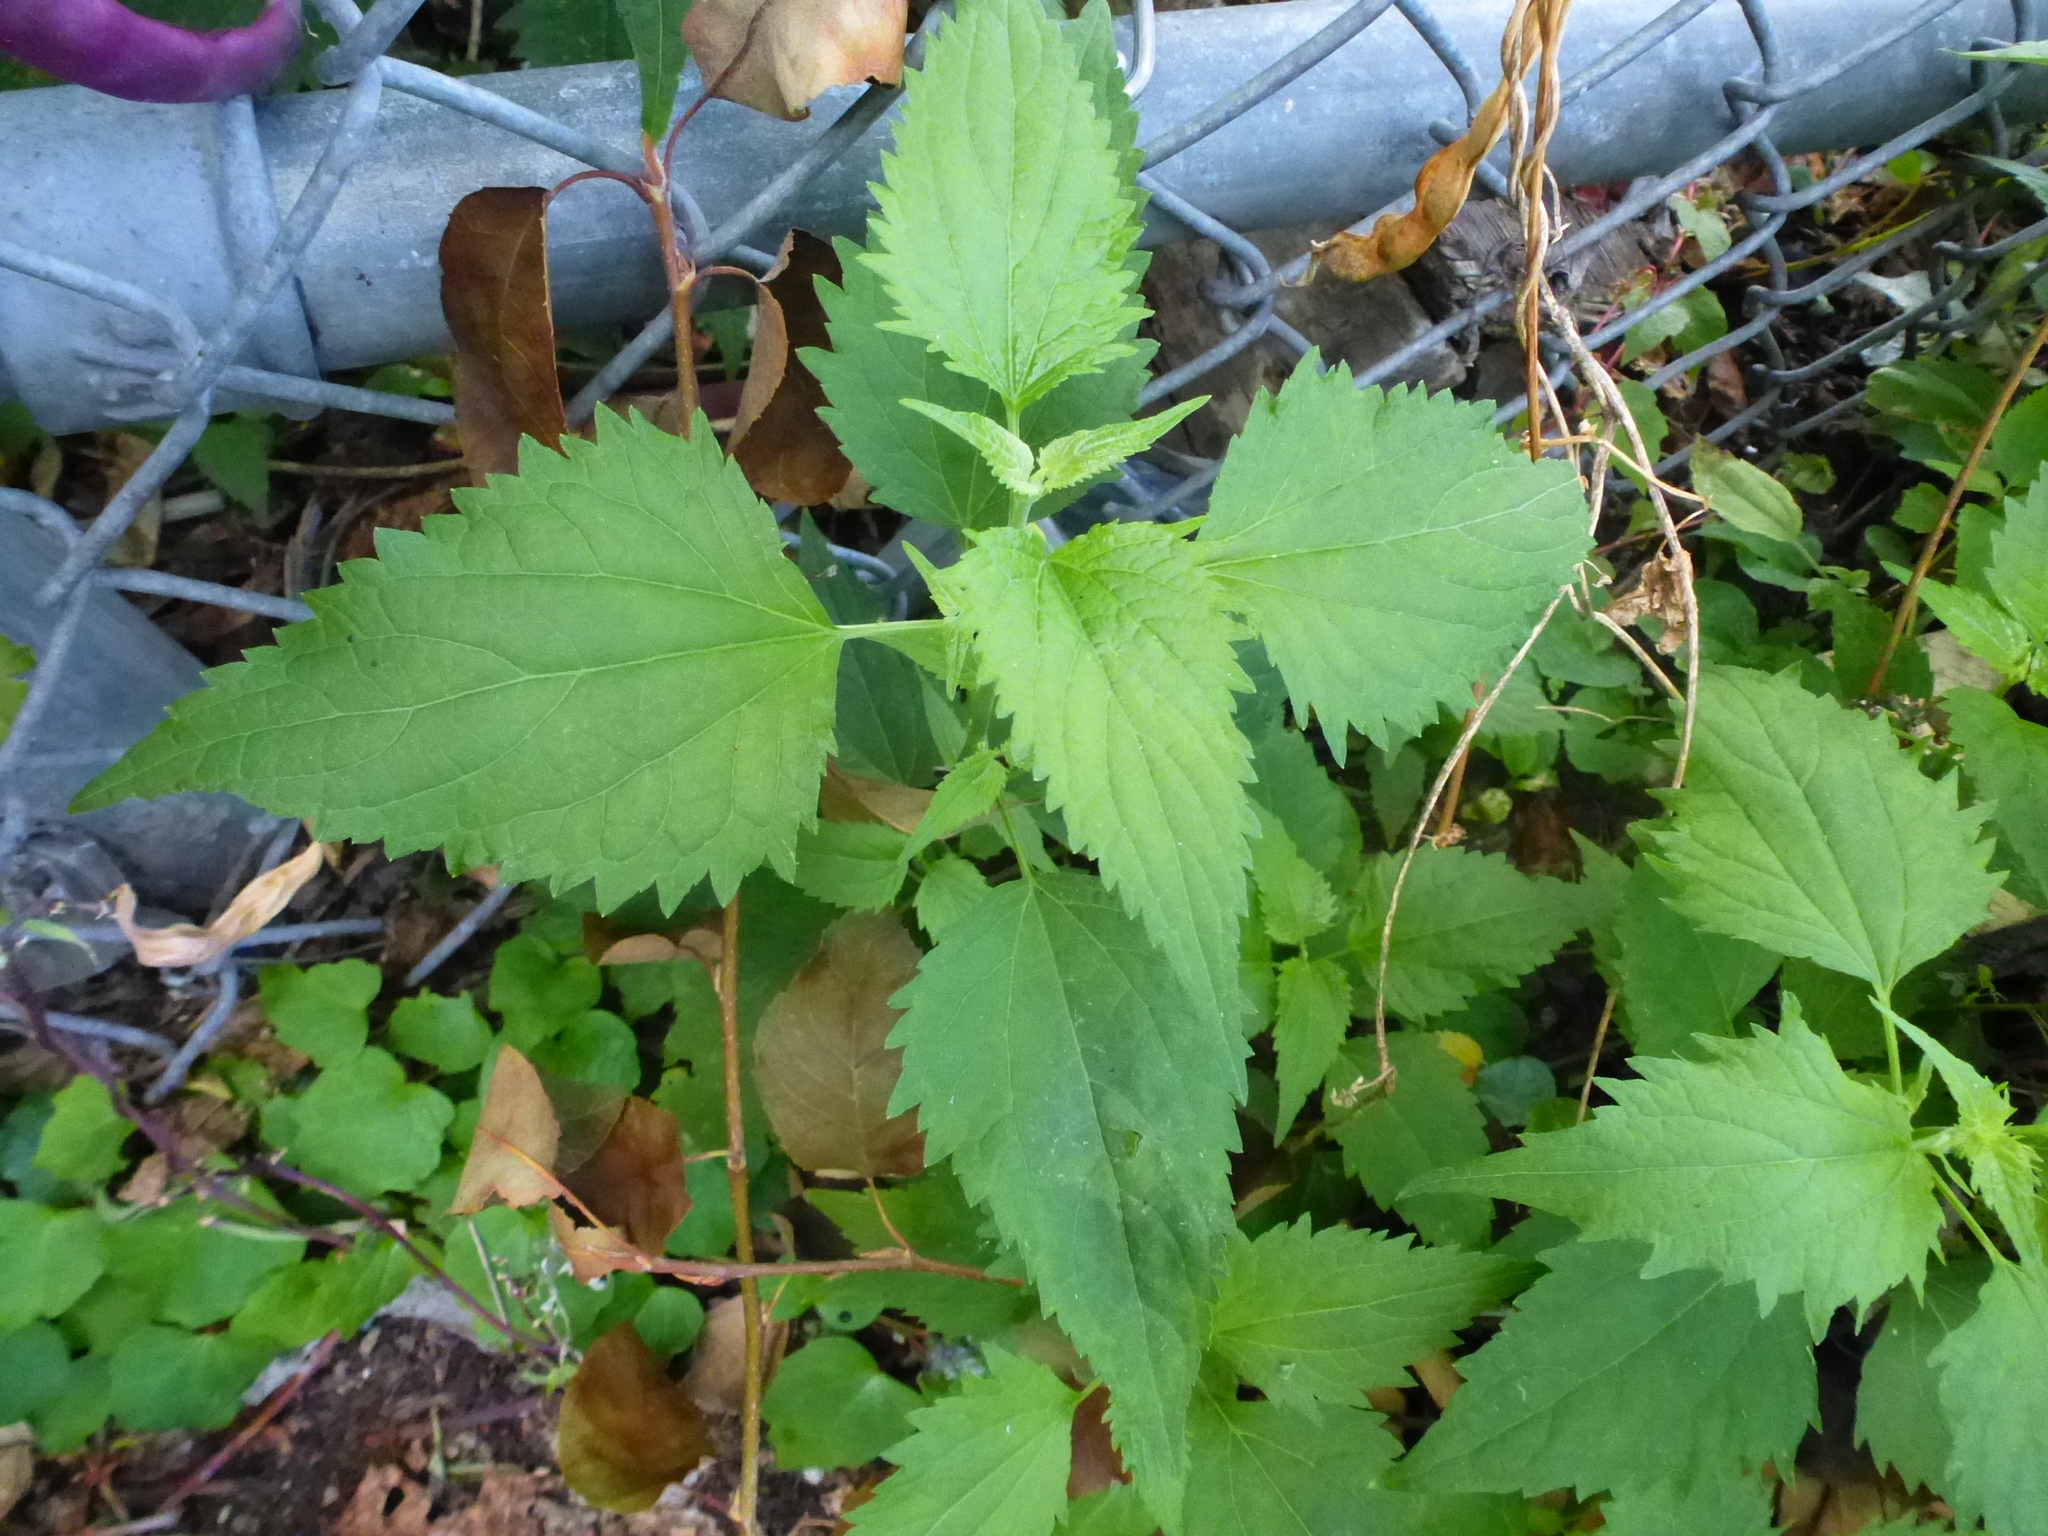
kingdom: Plantae
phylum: Tracheophyta
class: Magnoliopsida
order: Asterales
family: Asteraceae
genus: Ageratina
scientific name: Ageratina altissima
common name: White snakeroot
